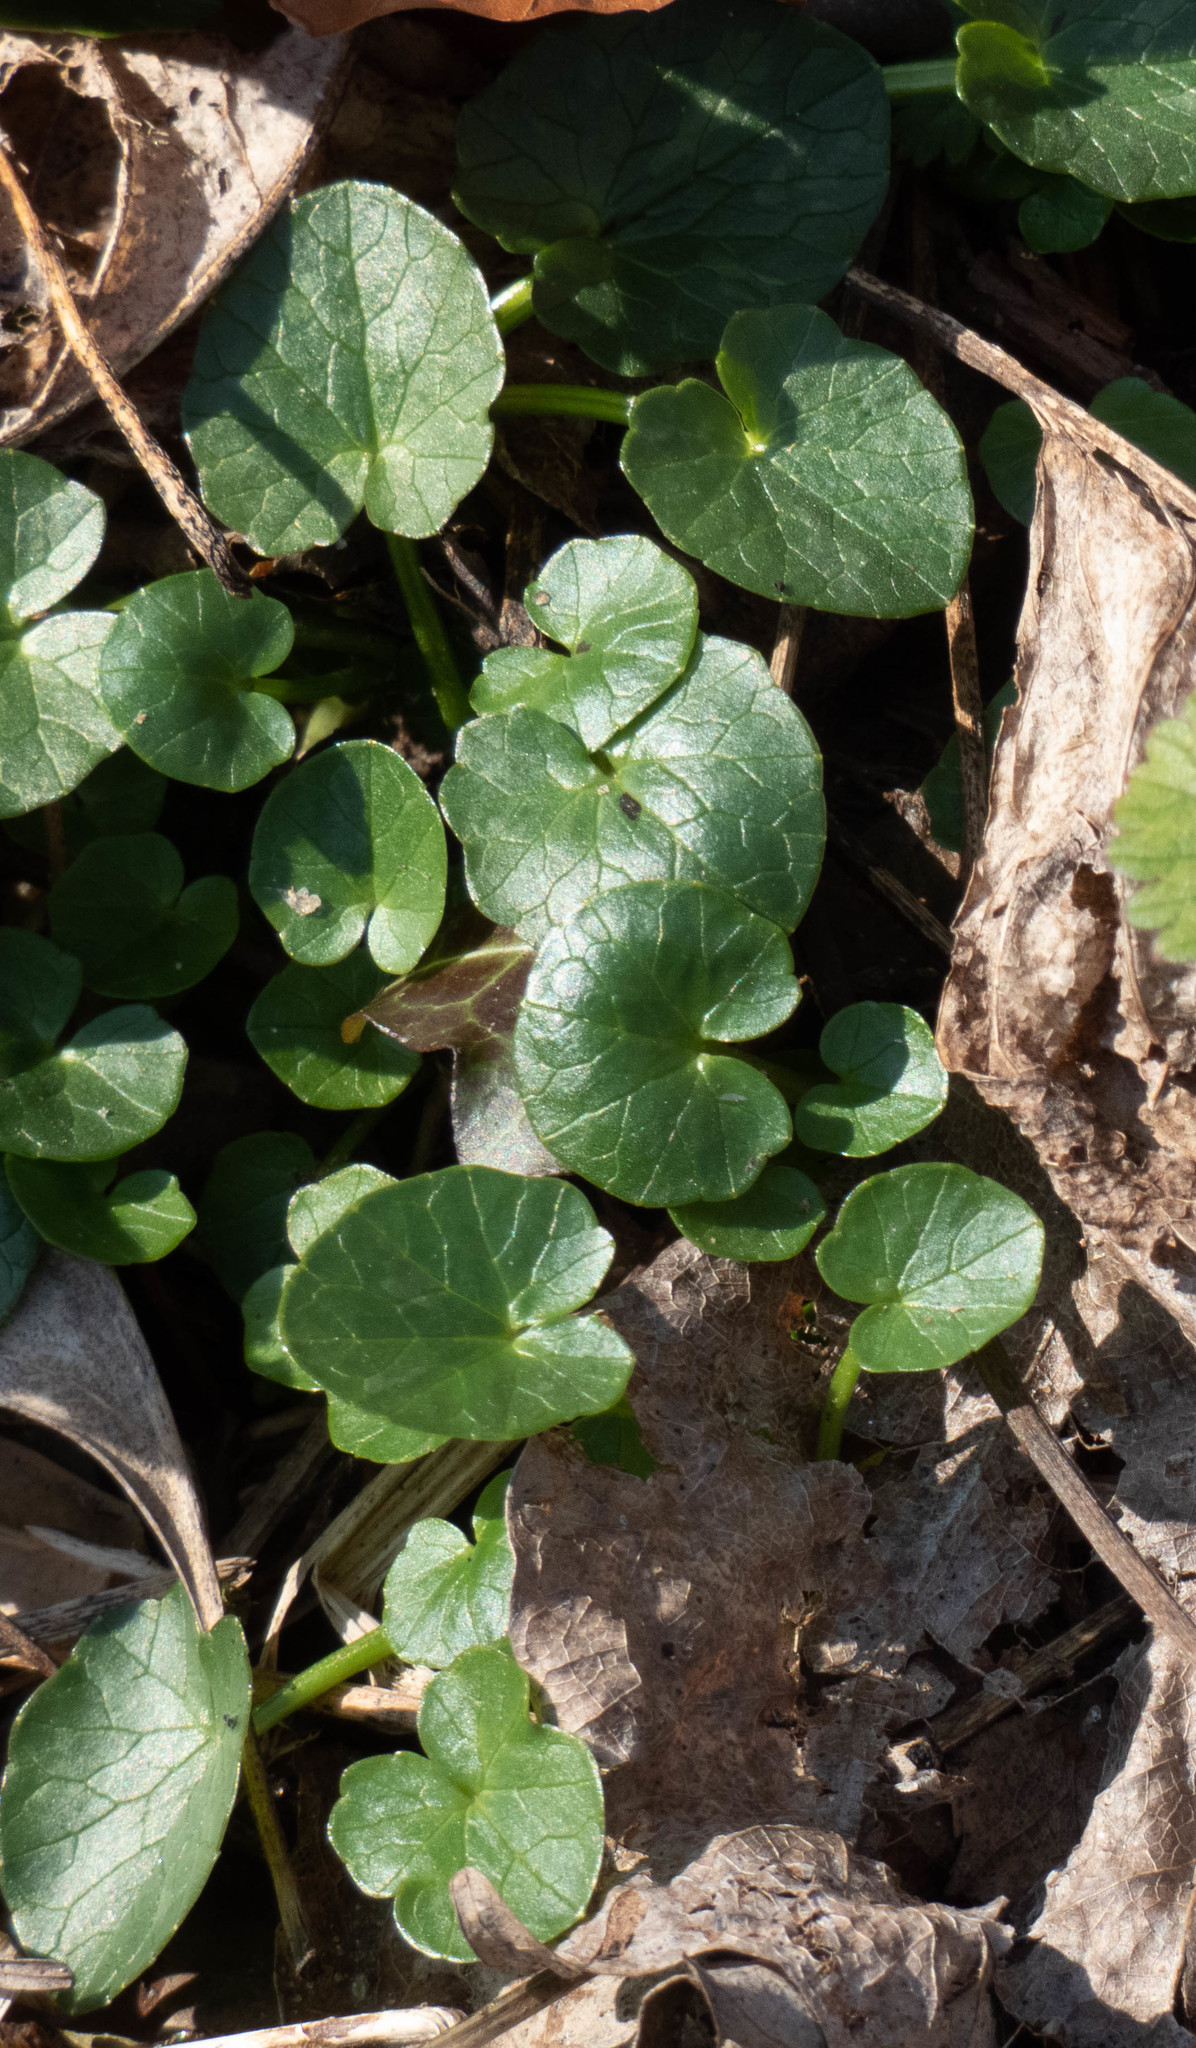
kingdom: Plantae
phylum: Tracheophyta
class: Magnoliopsida
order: Ranunculales
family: Ranunculaceae
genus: Ficaria
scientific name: Ficaria verna
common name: Lesser celandine
